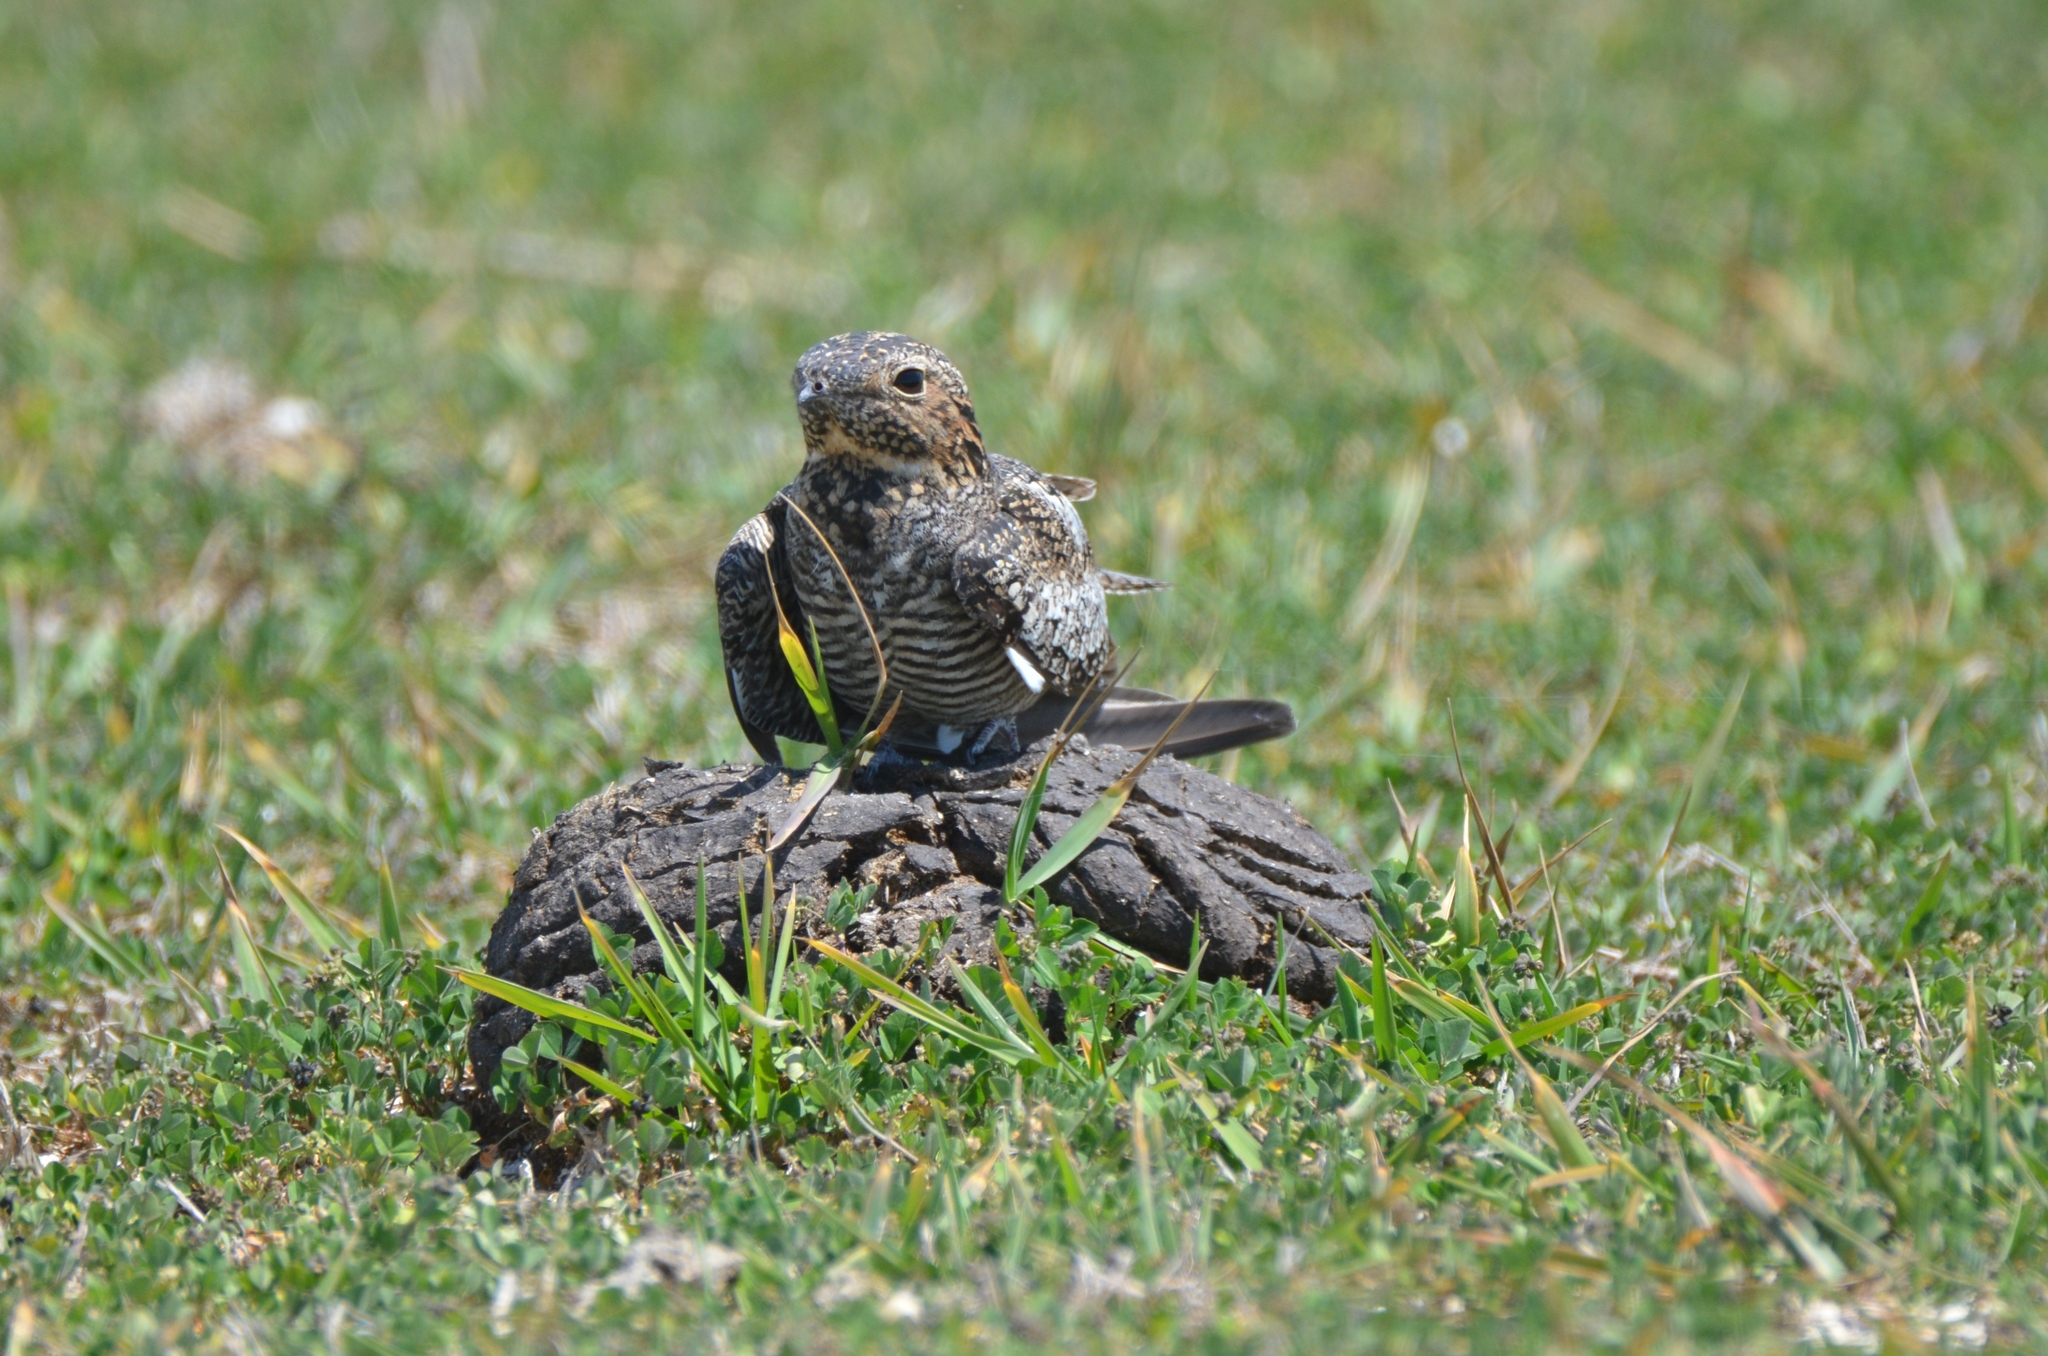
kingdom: Animalia
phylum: Chordata
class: Aves
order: Caprimulgiformes
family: Caprimulgidae
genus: Chordeiles
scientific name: Chordeiles minor
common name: Common nighthawk
